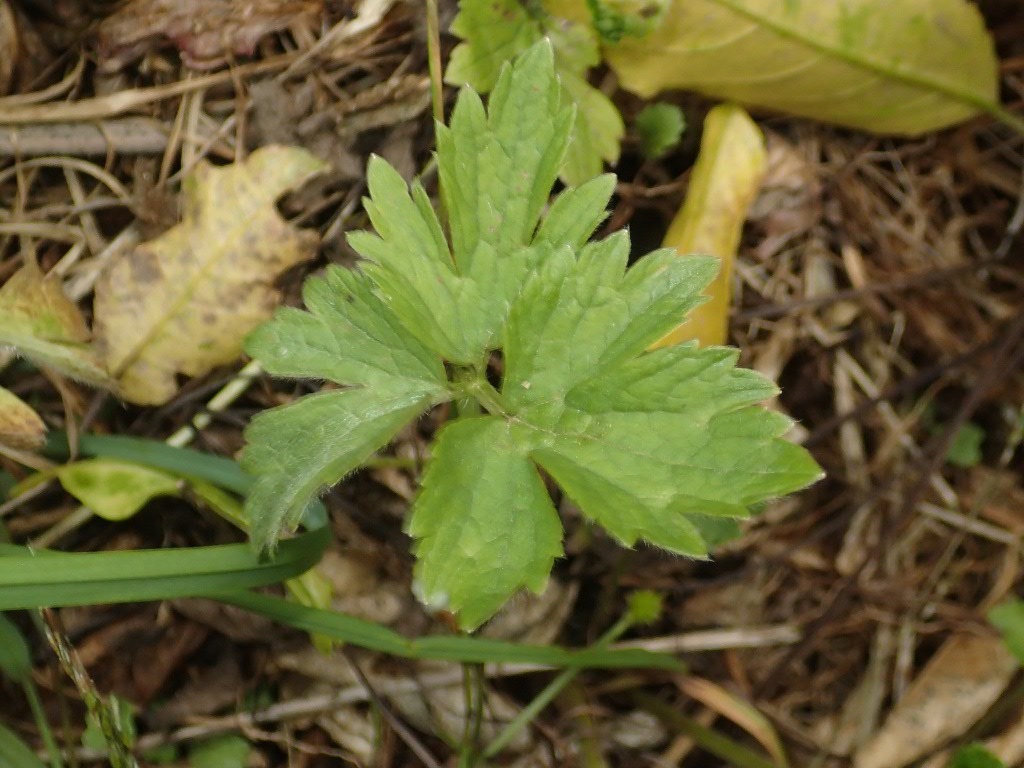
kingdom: Plantae
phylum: Tracheophyta
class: Magnoliopsida
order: Ranunculales
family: Ranunculaceae
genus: Ranunculus
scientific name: Ranunculus repens
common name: Creeping buttercup
